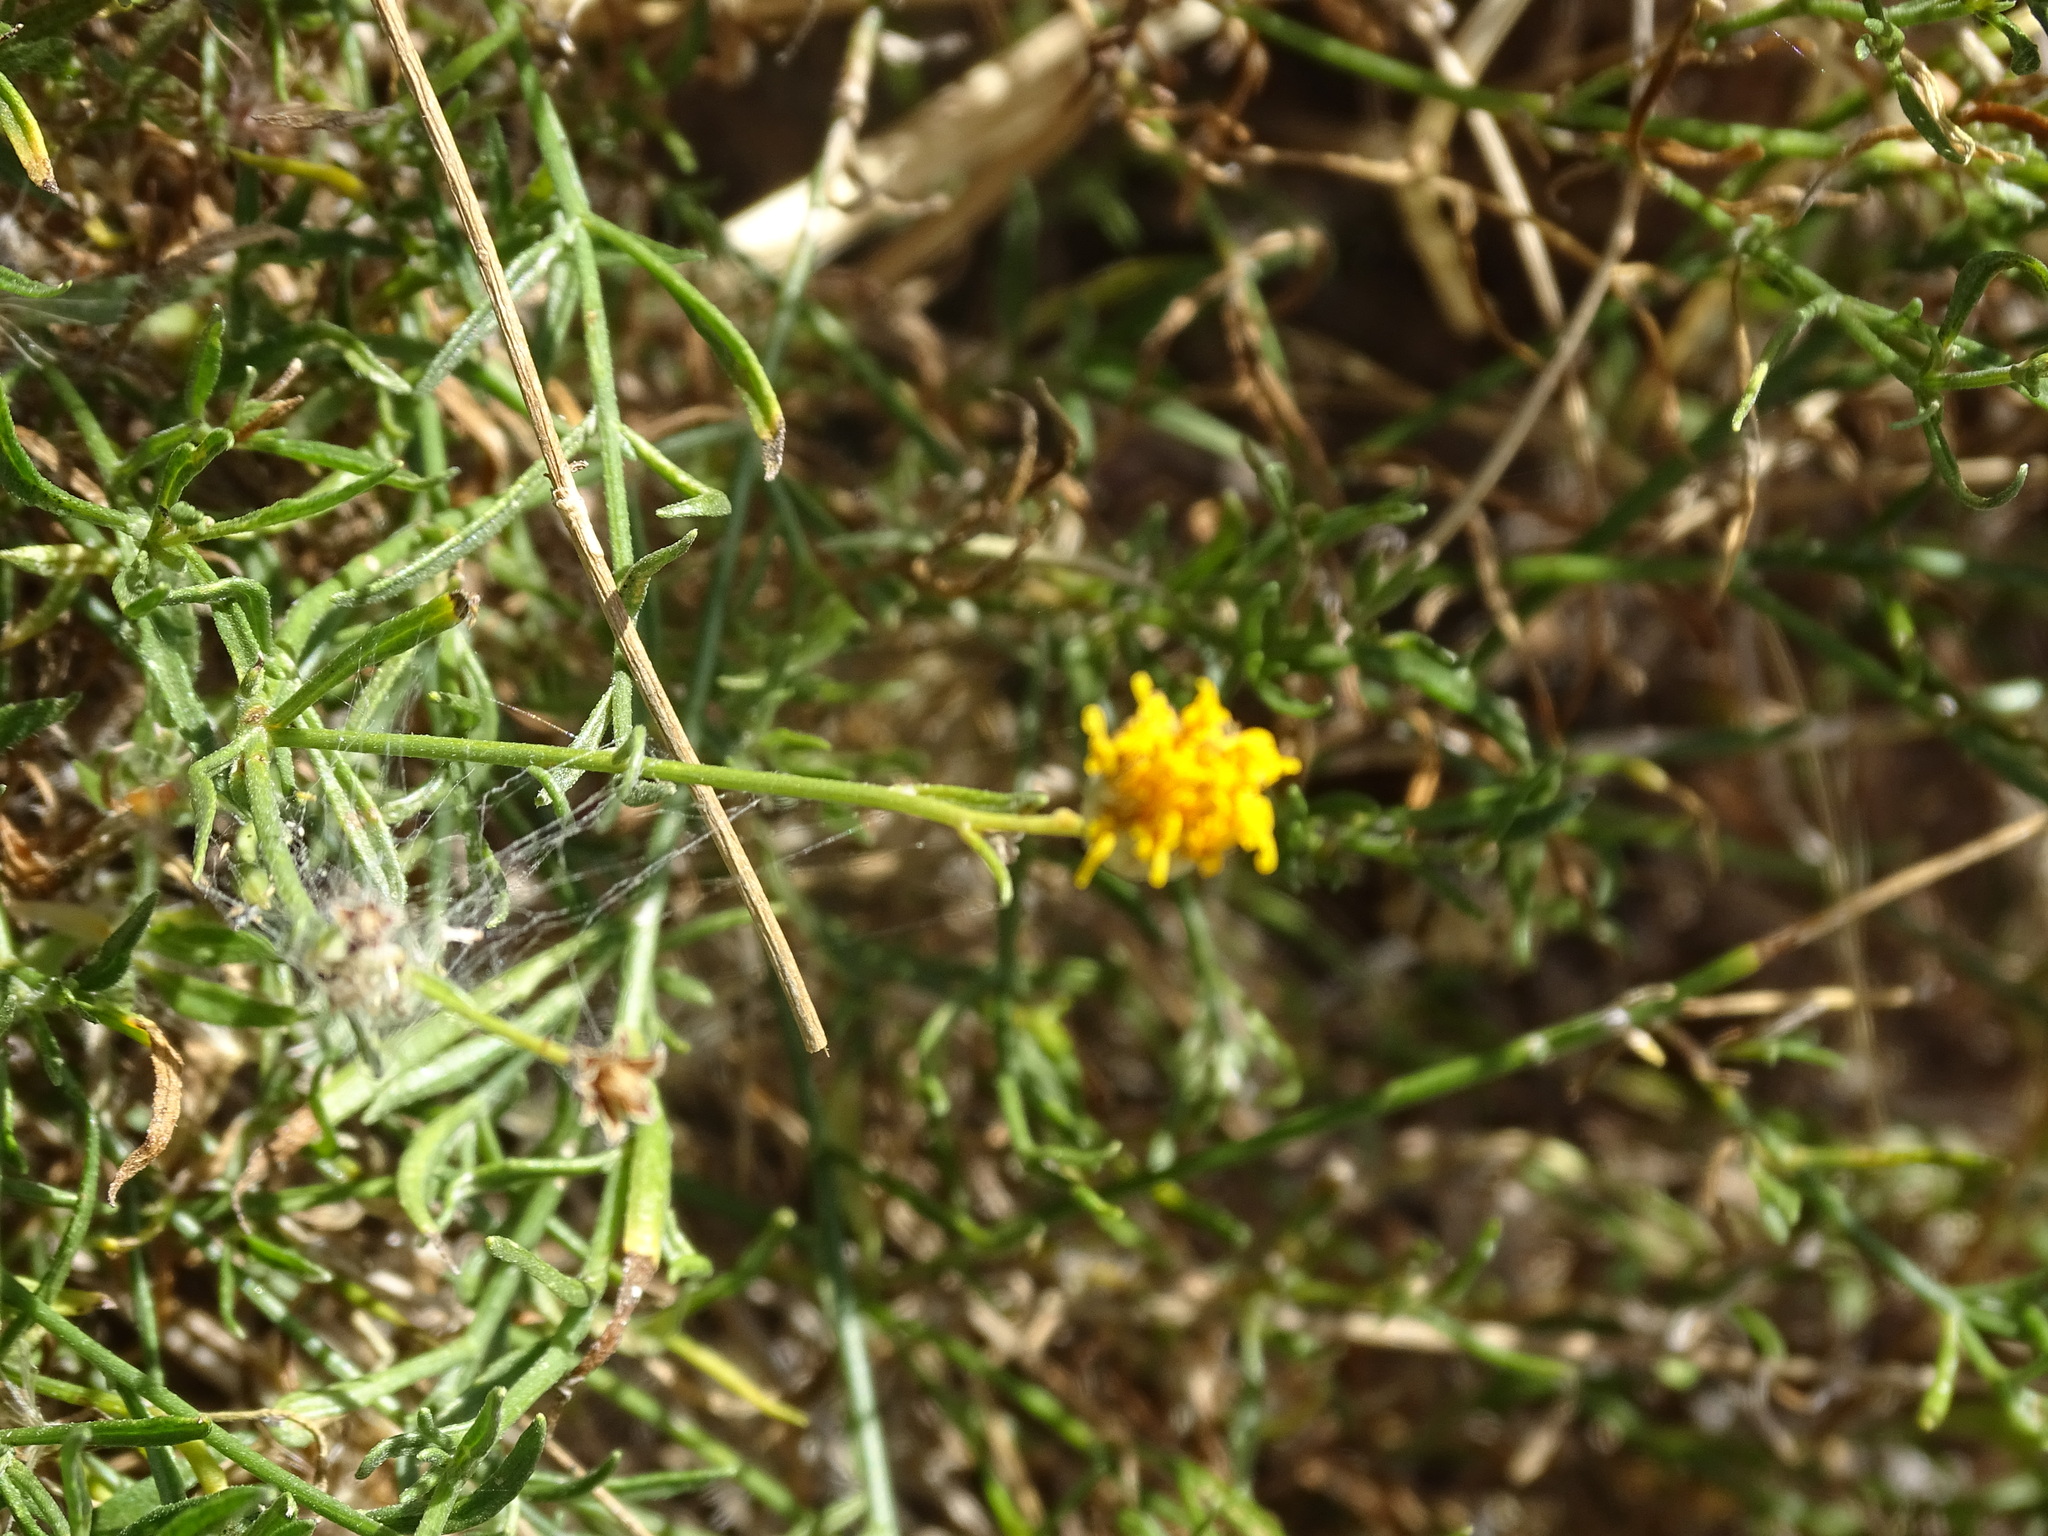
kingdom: Plantae
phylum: Tracheophyta
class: Magnoliopsida
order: Asterales
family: Asteraceae
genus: Bebbia
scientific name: Bebbia juncea
